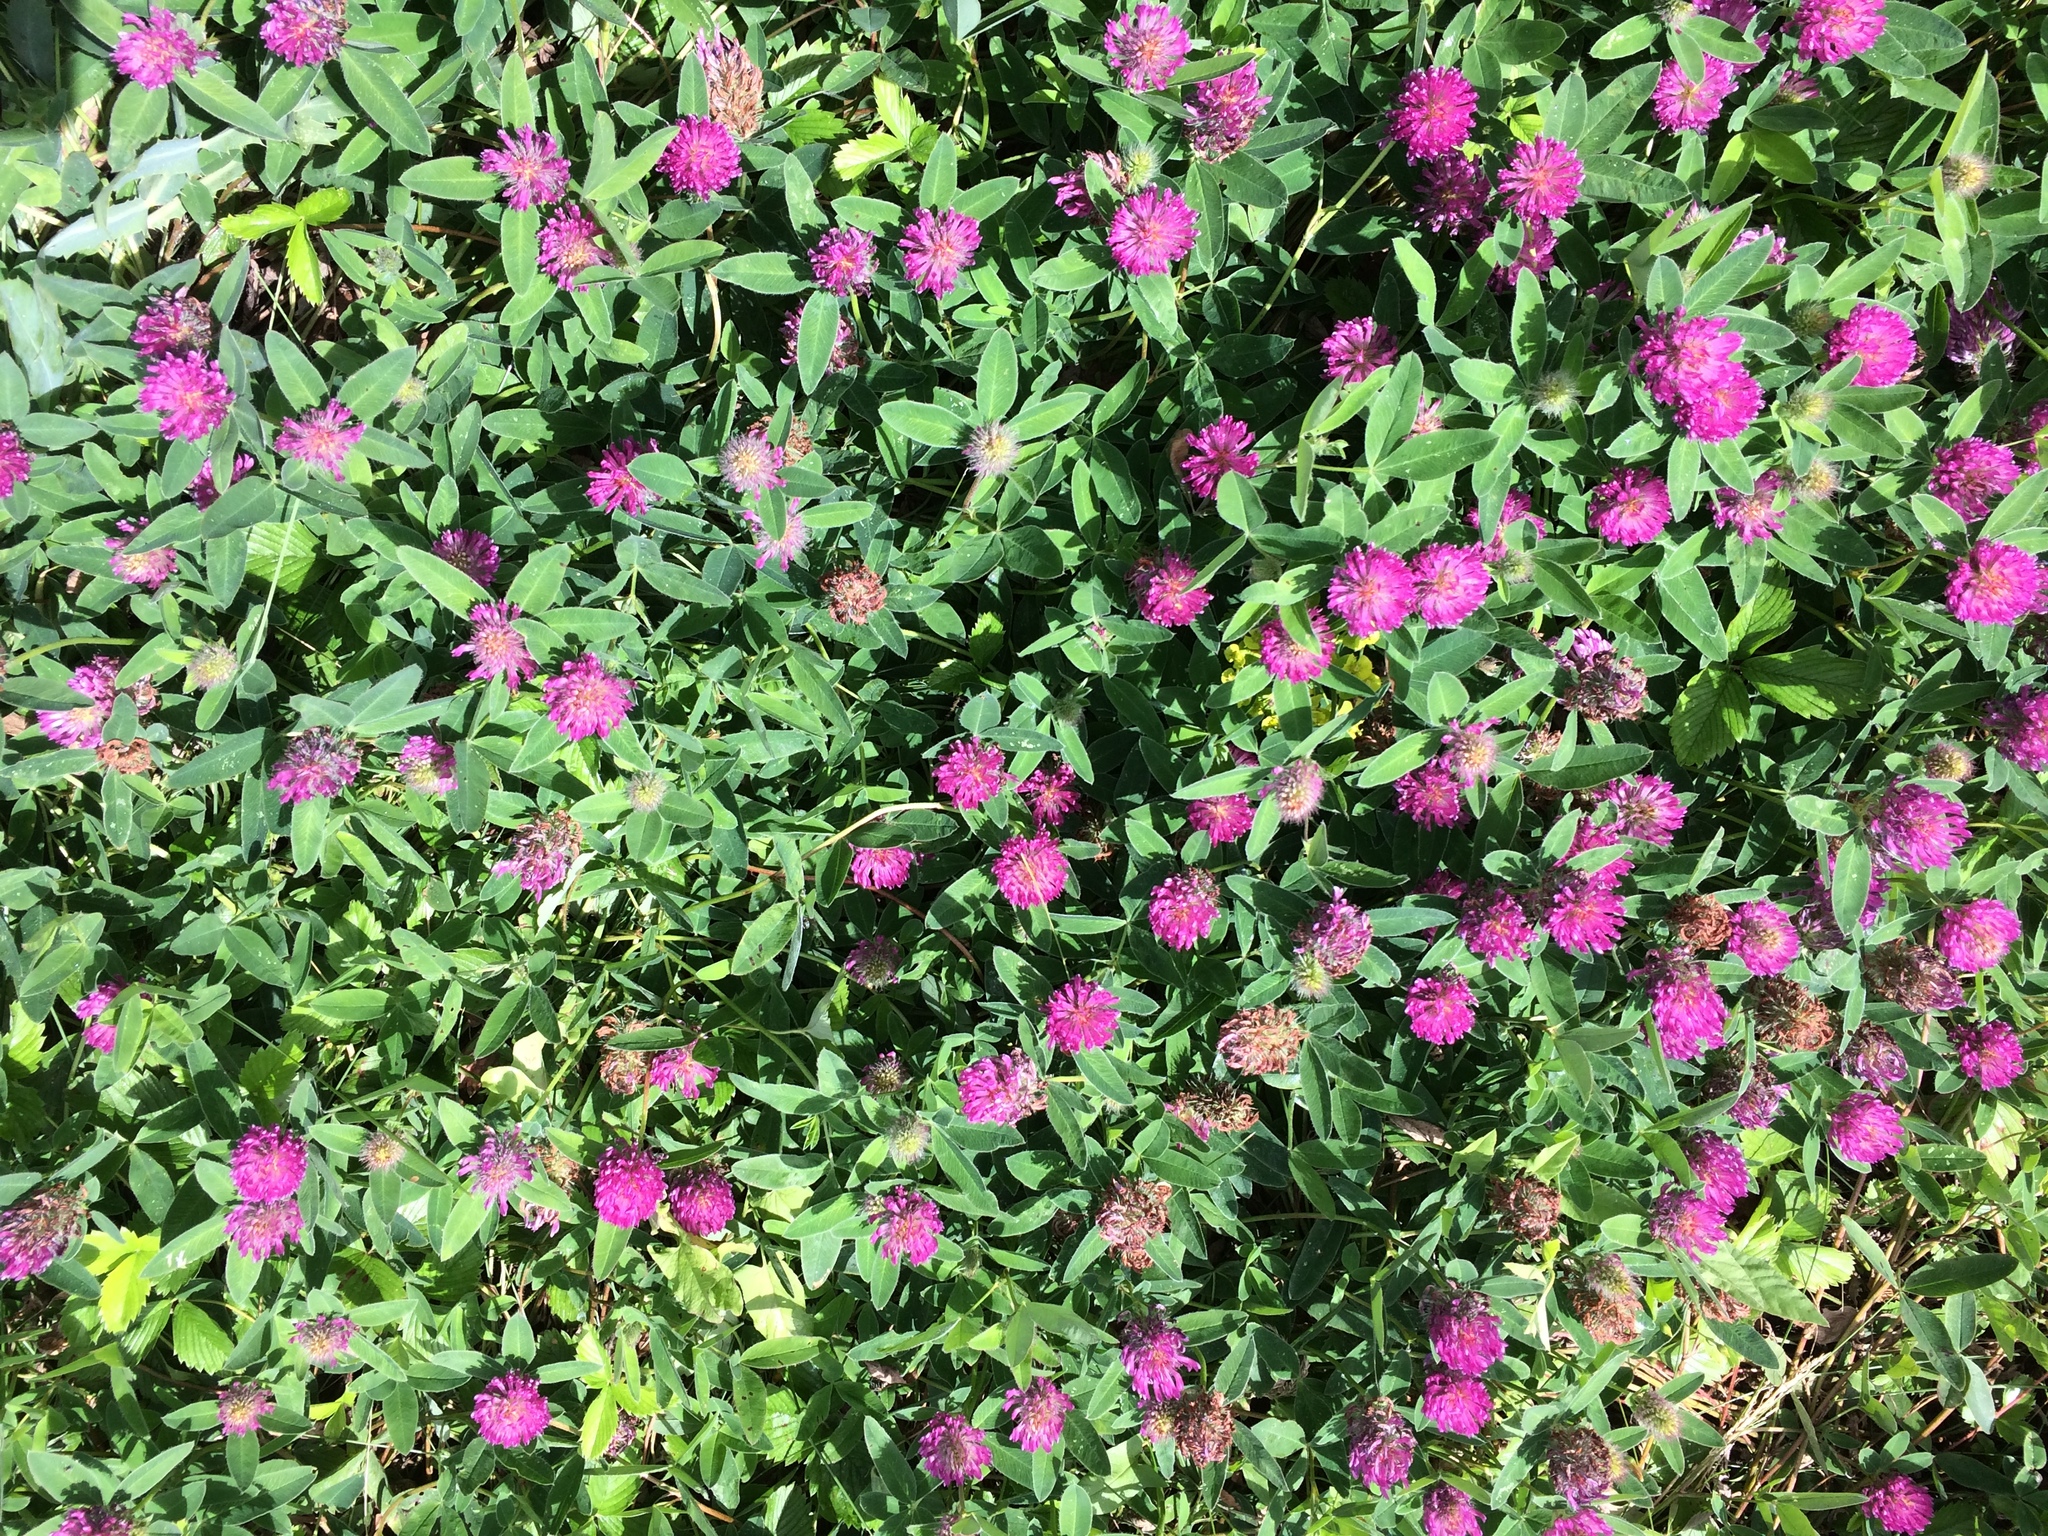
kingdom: Plantae
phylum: Tracheophyta
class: Magnoliopsida
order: Fabales
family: Fabaceae
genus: Trifolium
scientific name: Trifolium medium
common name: Zigzag clover
